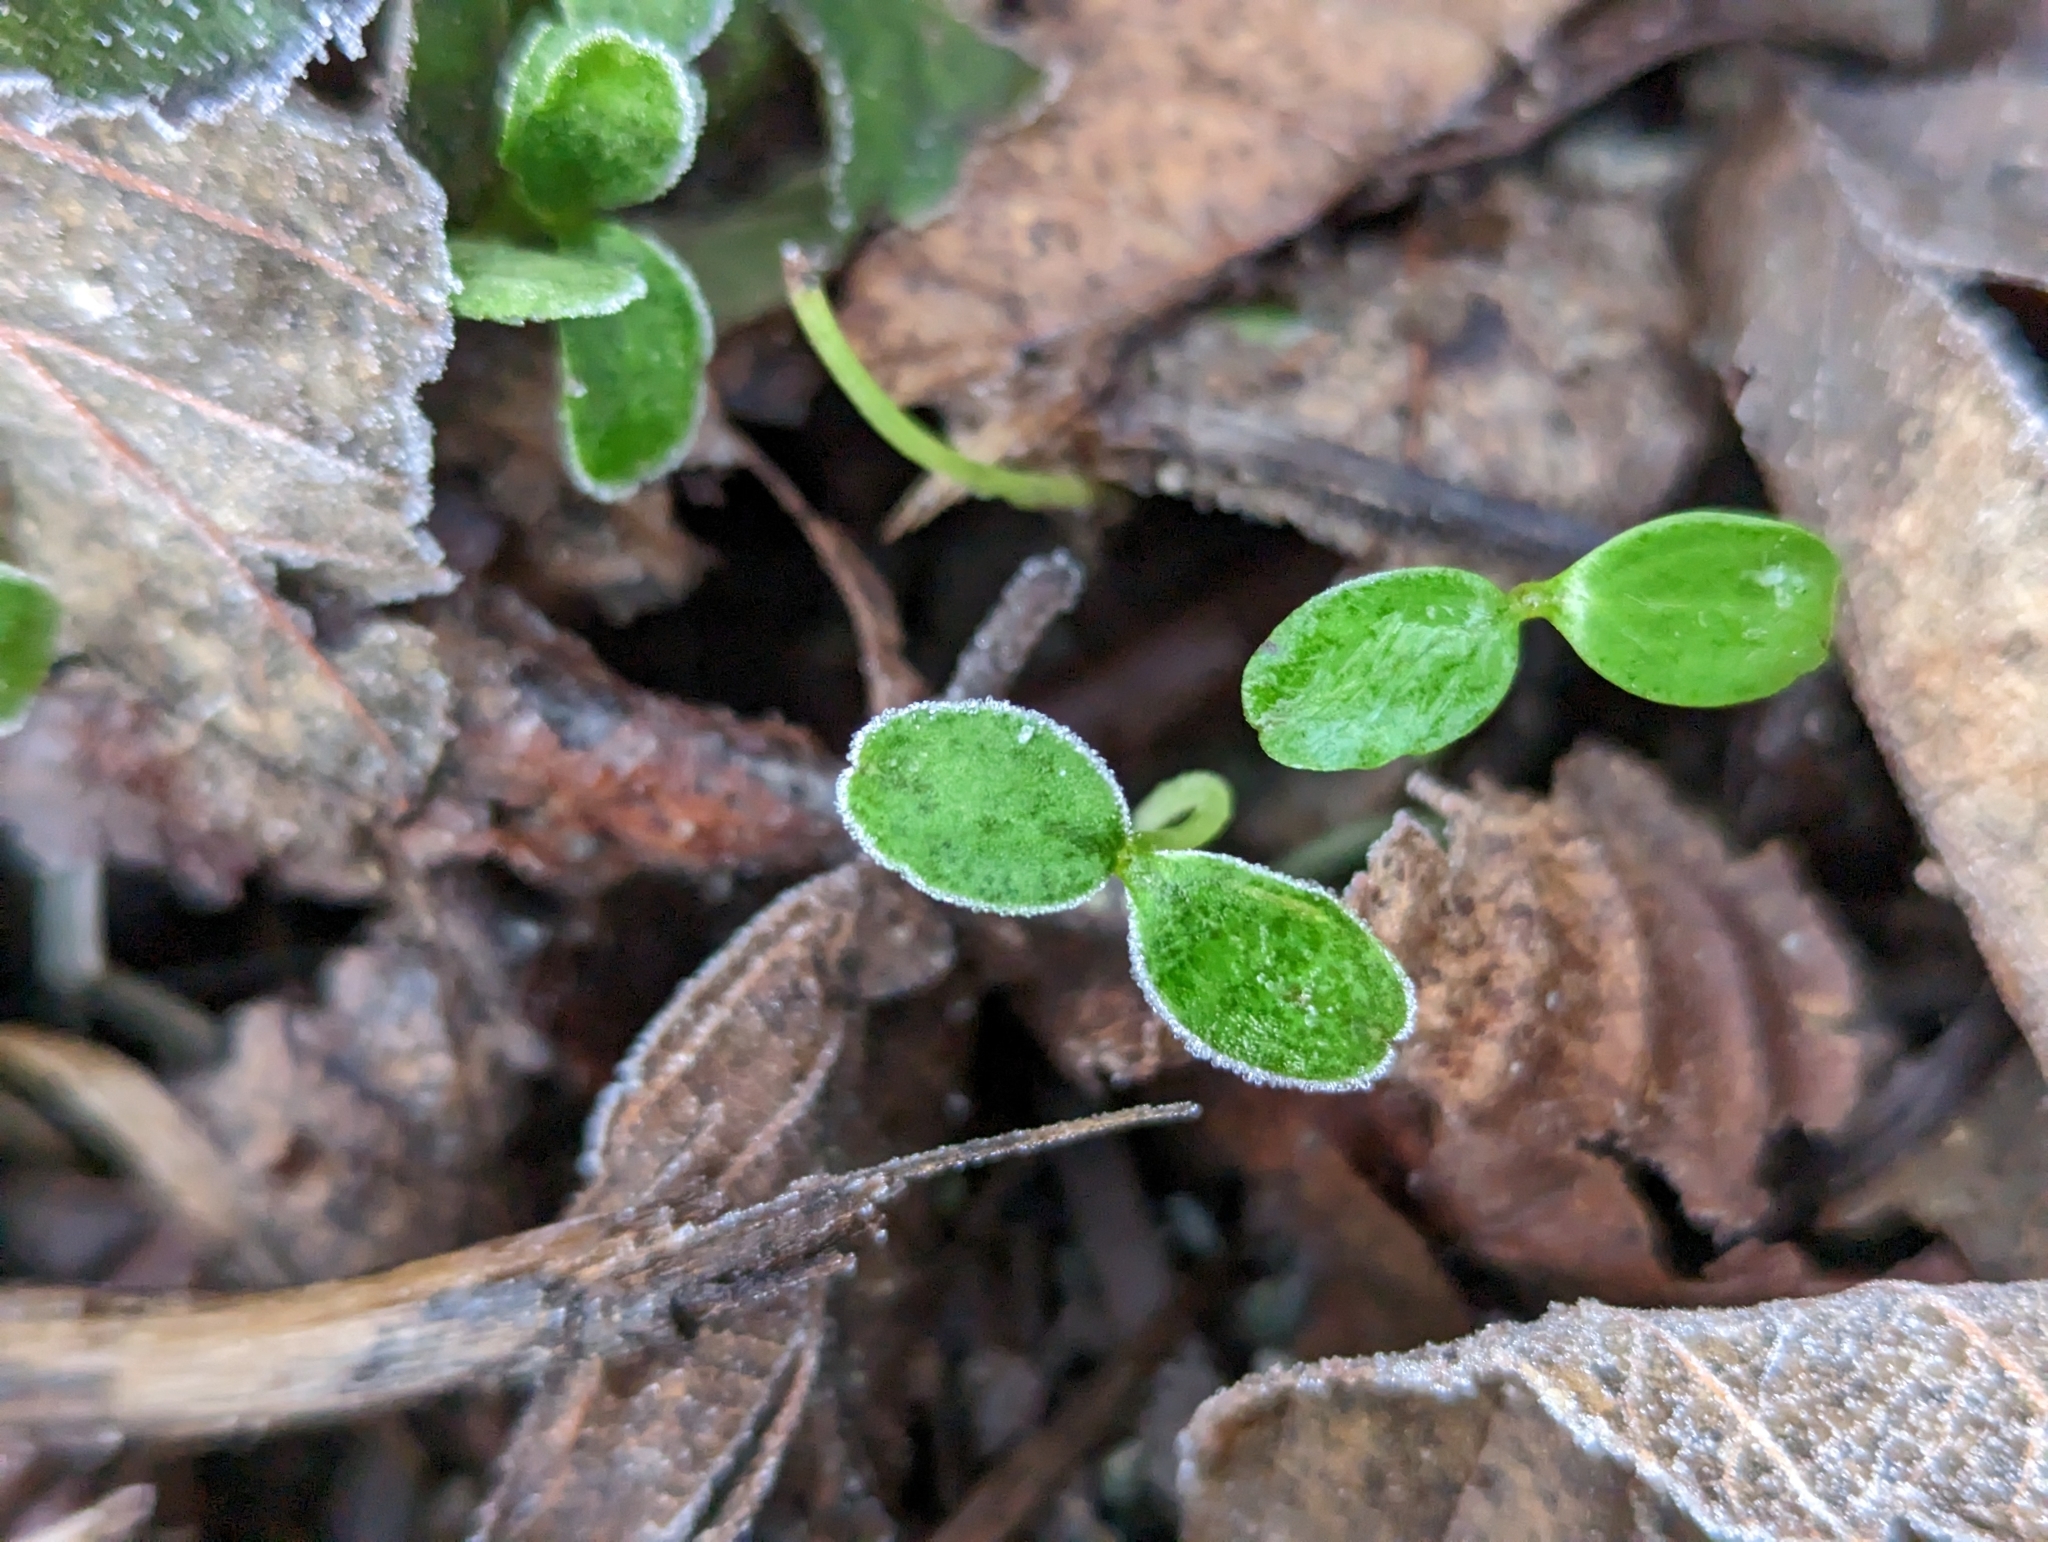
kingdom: Plantae
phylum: Tracheophyta
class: Magnoliopsida
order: Gentianales
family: Rubiaceae
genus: Galium
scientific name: Galium aparine
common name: Cleavers
